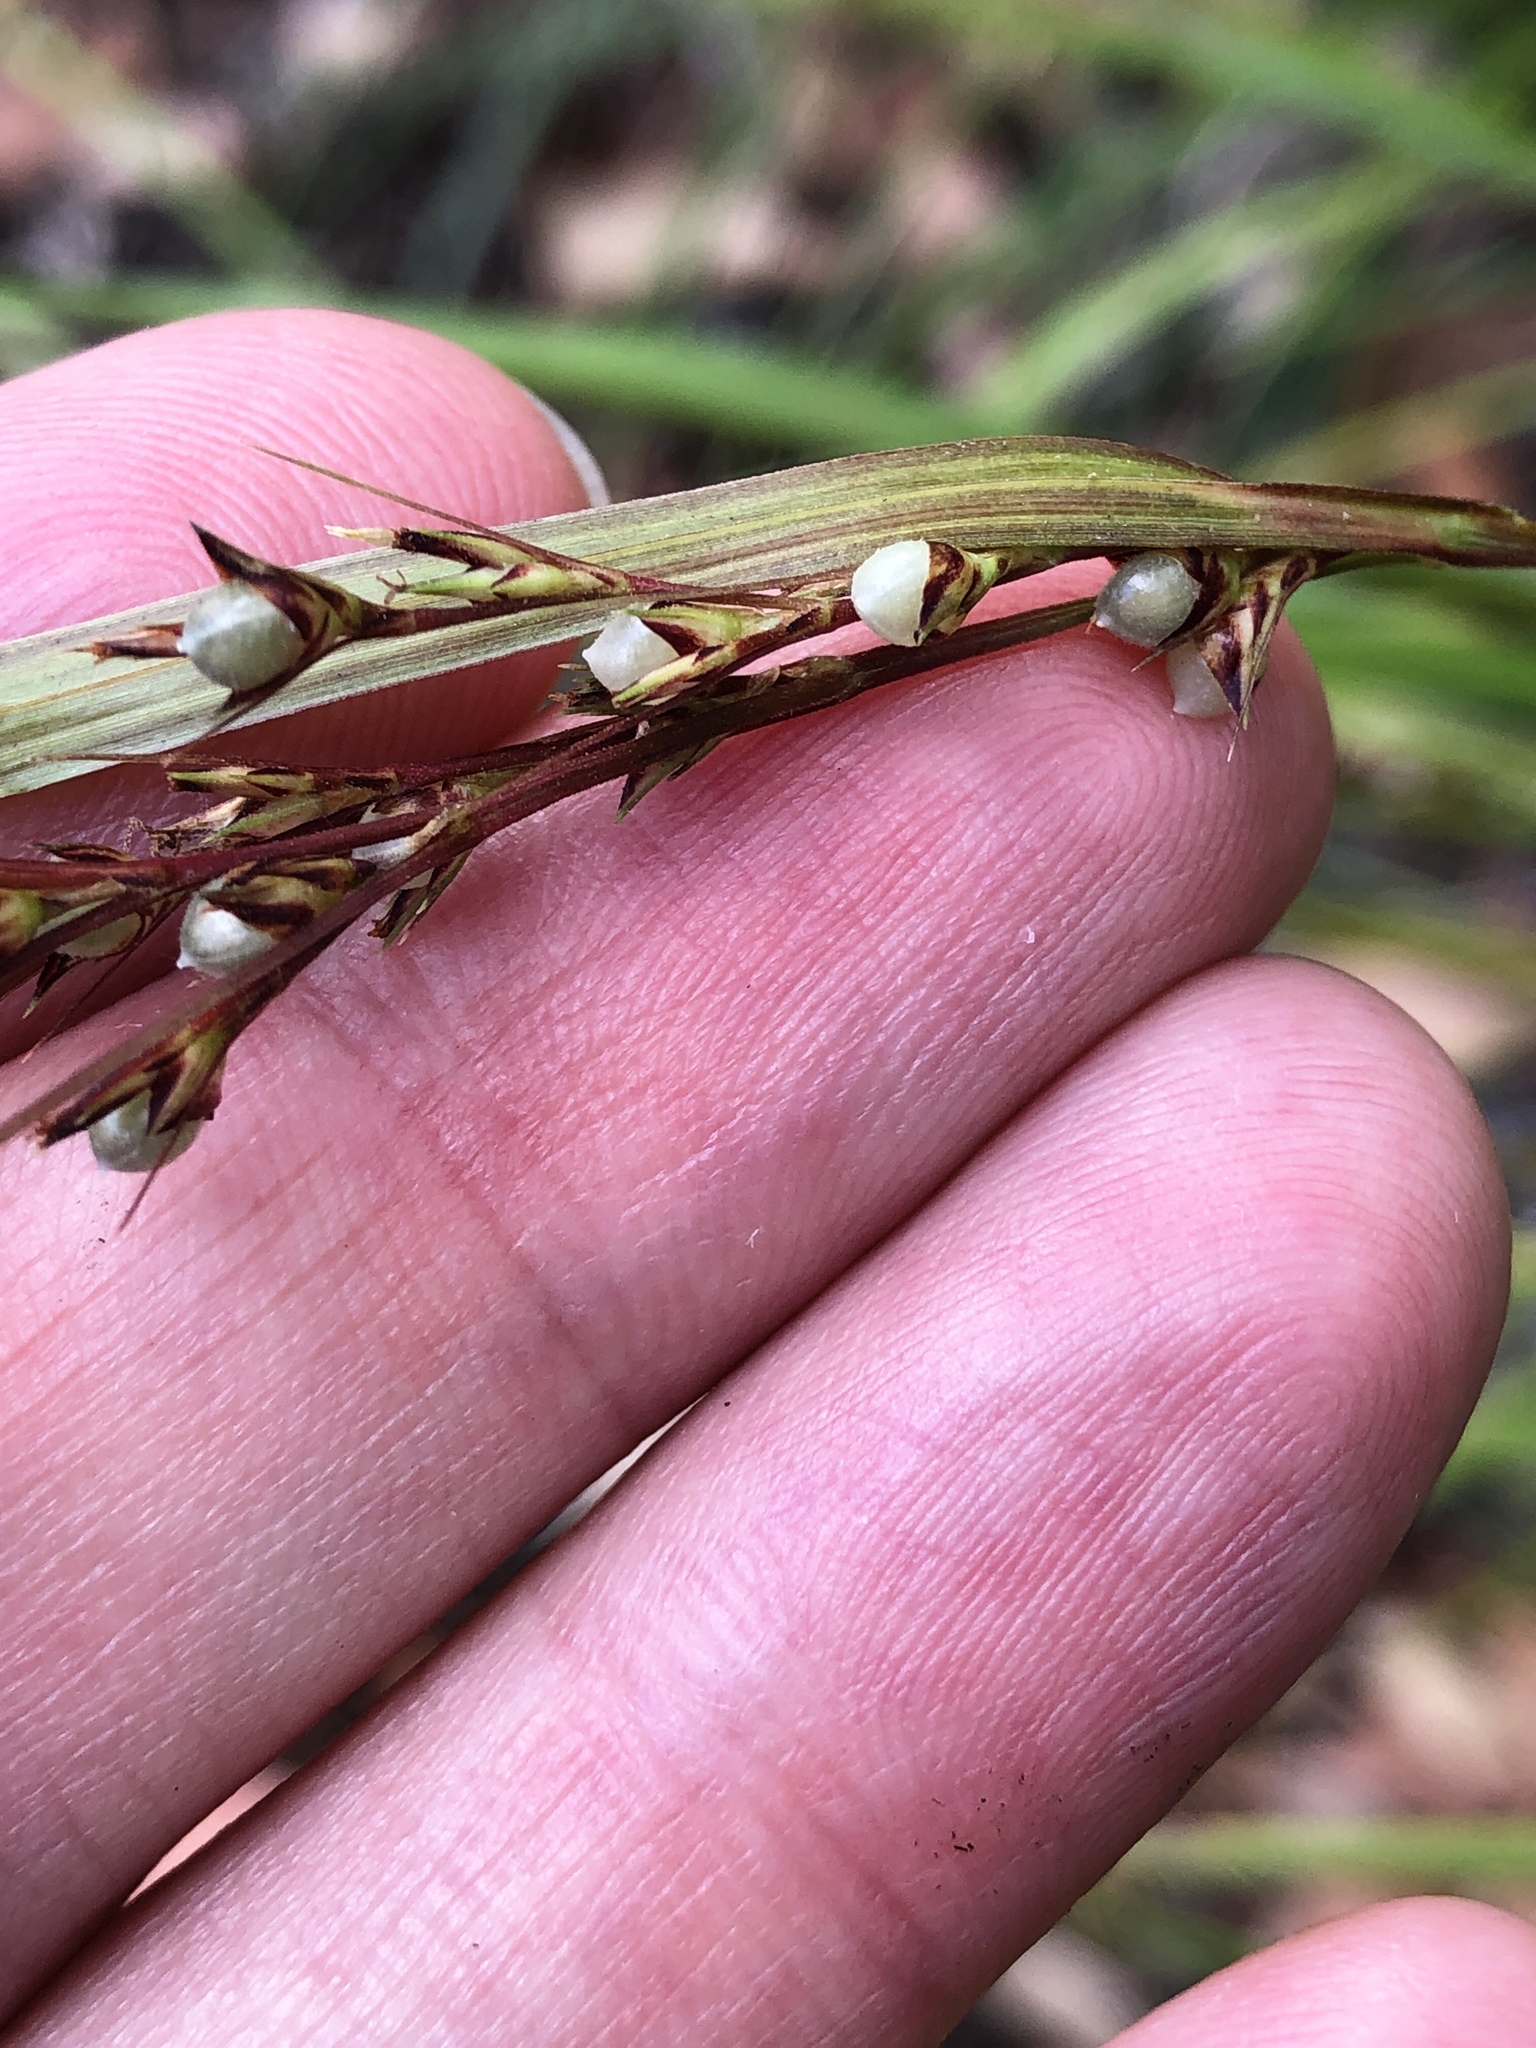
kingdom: Plantae
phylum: Tracheophyta
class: Liliopsida
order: Poales
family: Cyperaceae
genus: Scleria
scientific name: Scleria levis
